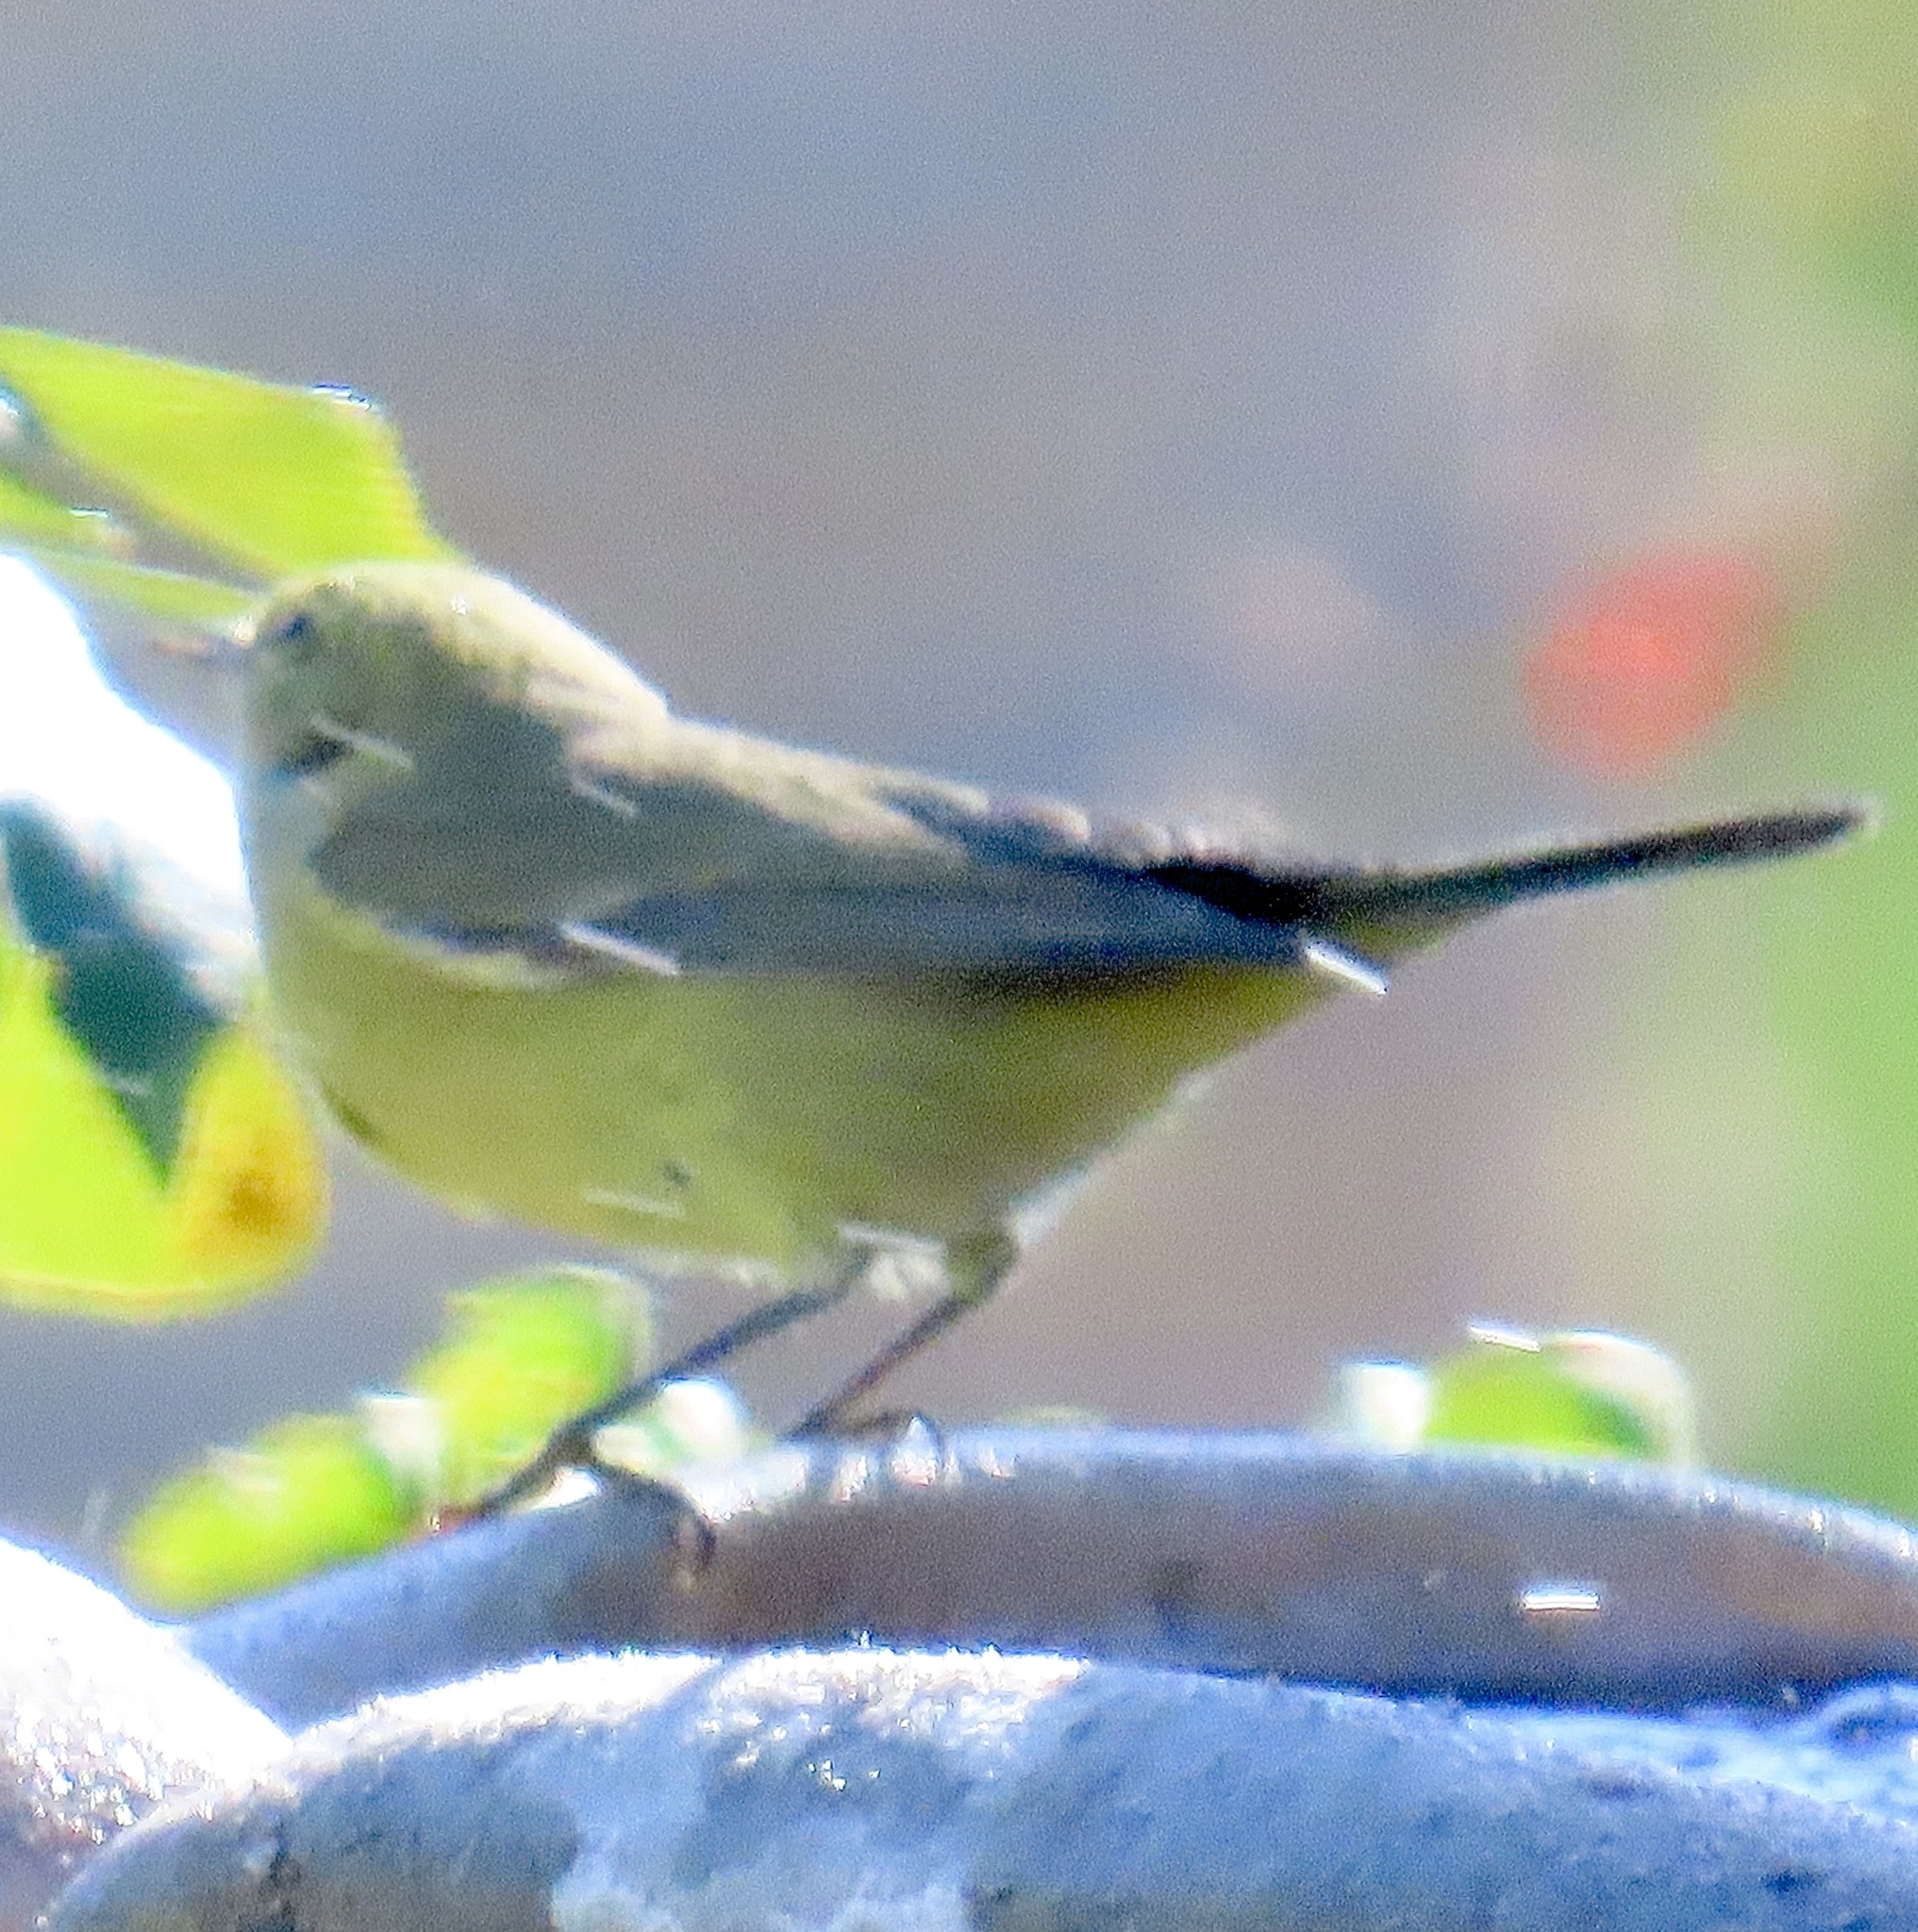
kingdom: Animalia
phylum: Chordata
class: Aves
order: Passeriformes
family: Parulidae
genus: Leiothlypis
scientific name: Leiothlypis celata
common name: Orange-crowned warbler
